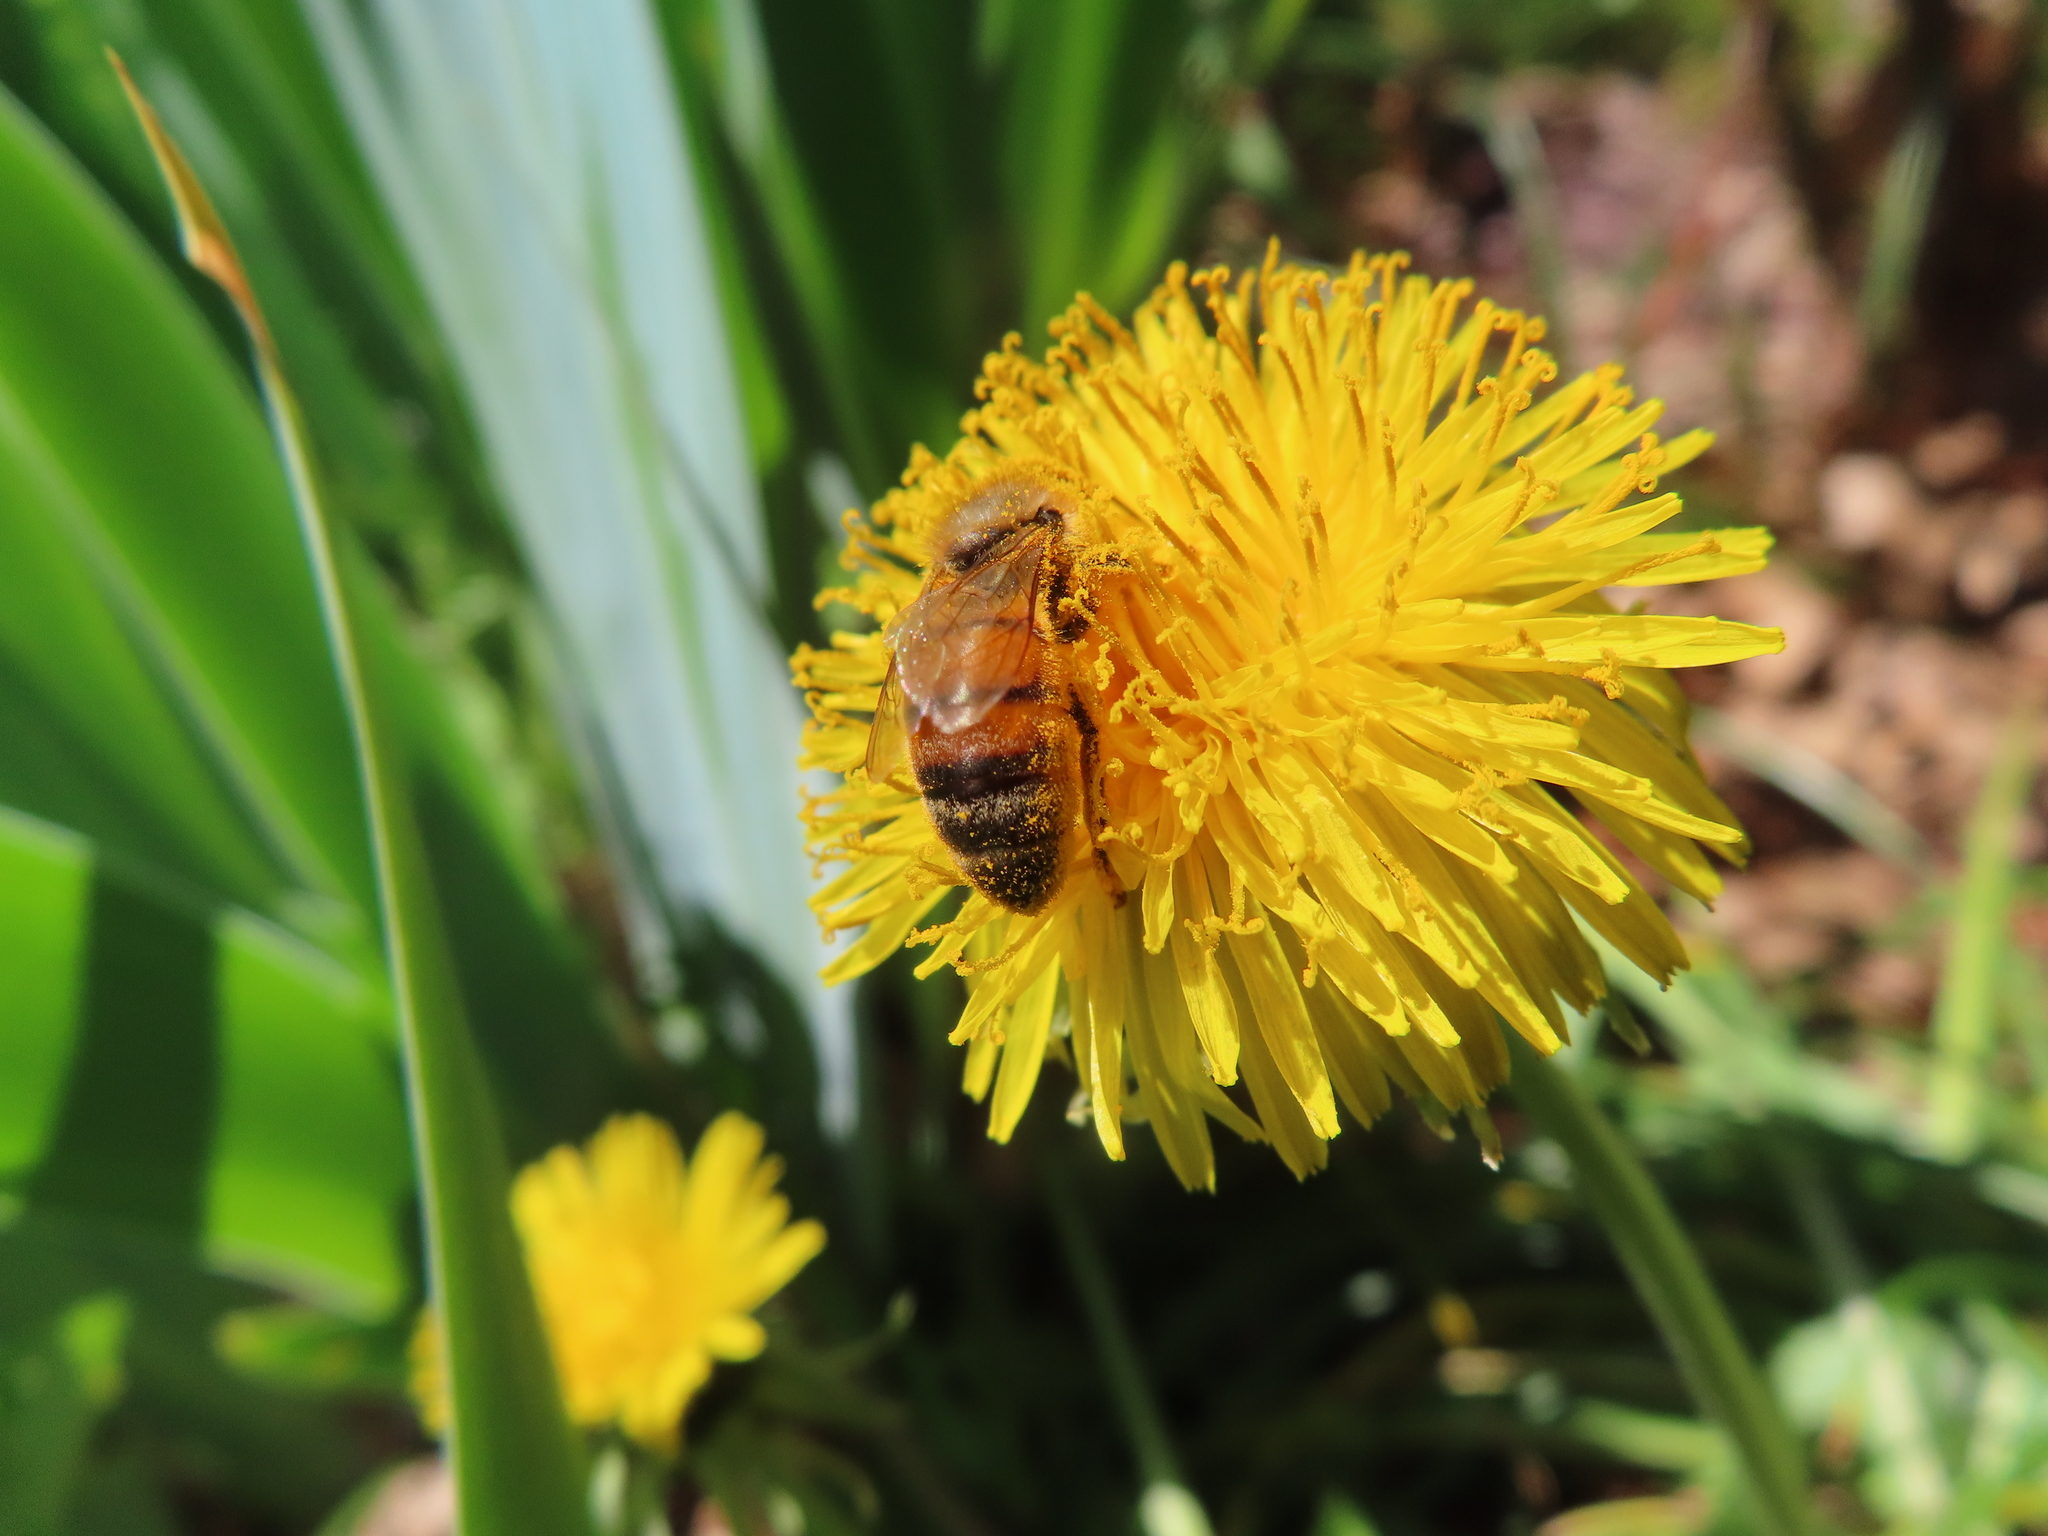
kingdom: Animalia
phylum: Arthropoda
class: Insecta
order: Hymenoptera
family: Apidae
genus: Apis
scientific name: Apis mellifera
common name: Honey bee
